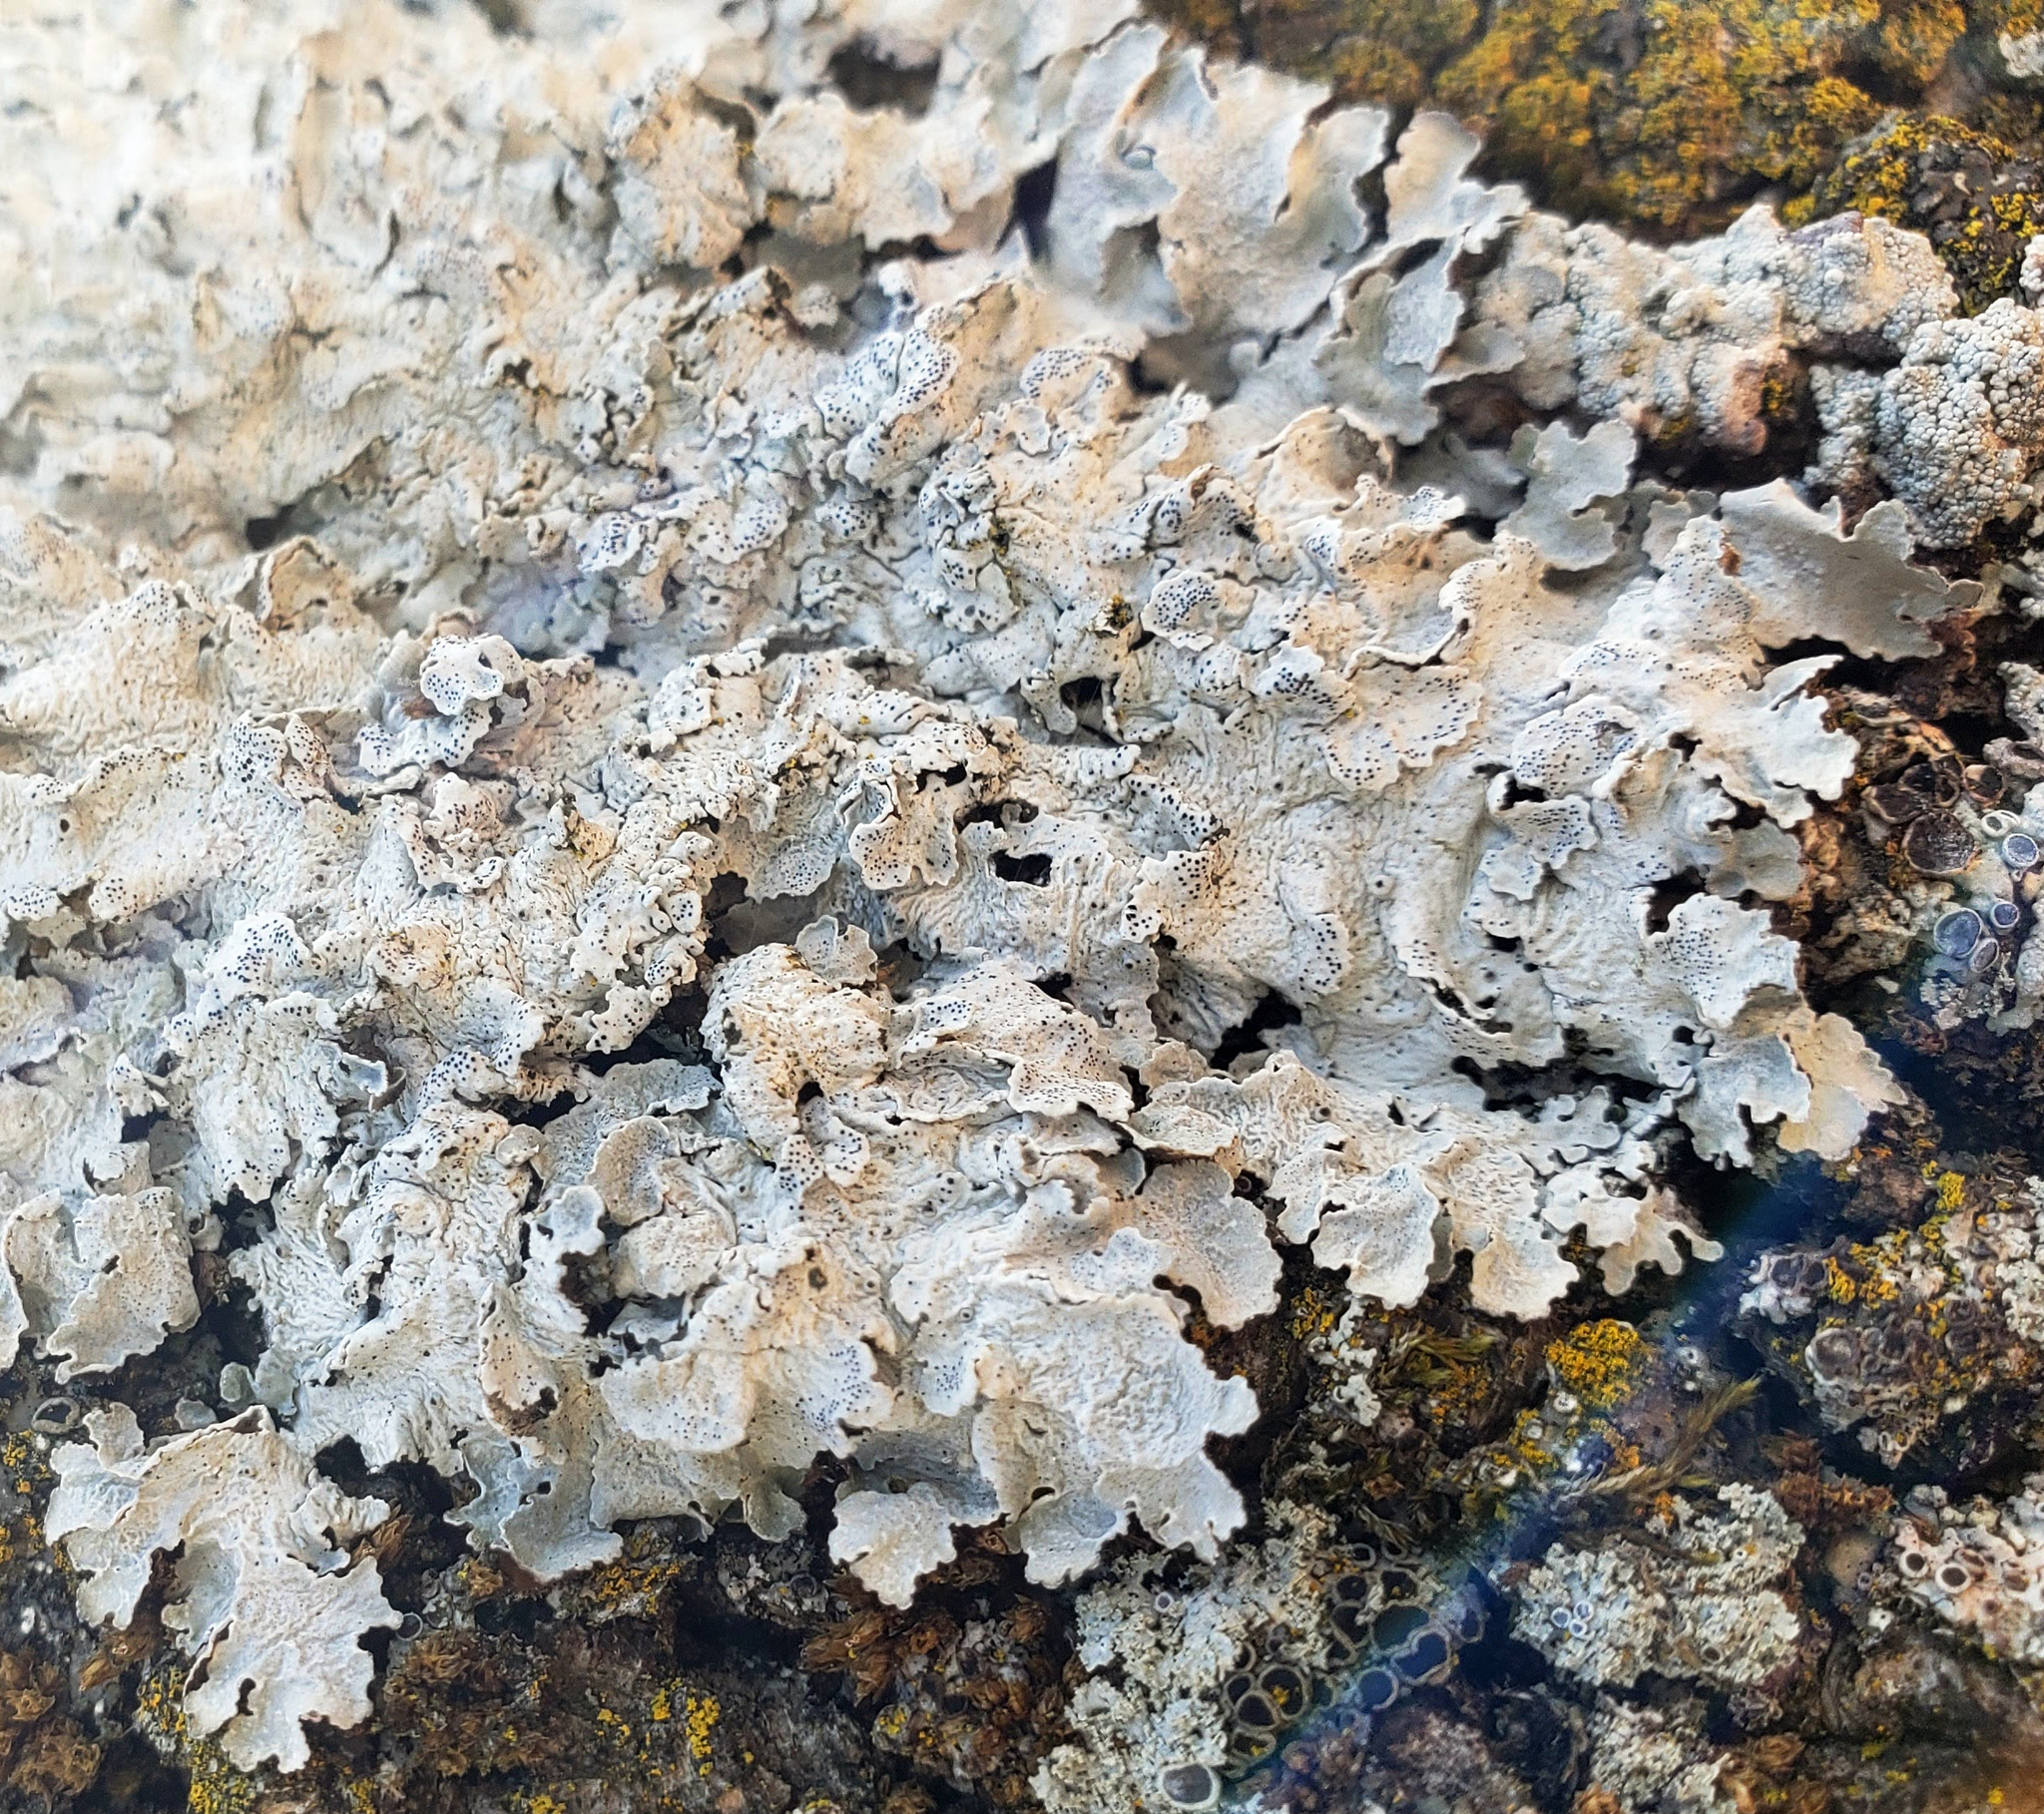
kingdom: Fungi
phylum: Ascomycota
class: Lecanoromycetes
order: Lecanorales
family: Parmeliaceae
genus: Punctelia
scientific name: Punctelia bolliana
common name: Eastern speckled shield lichen
